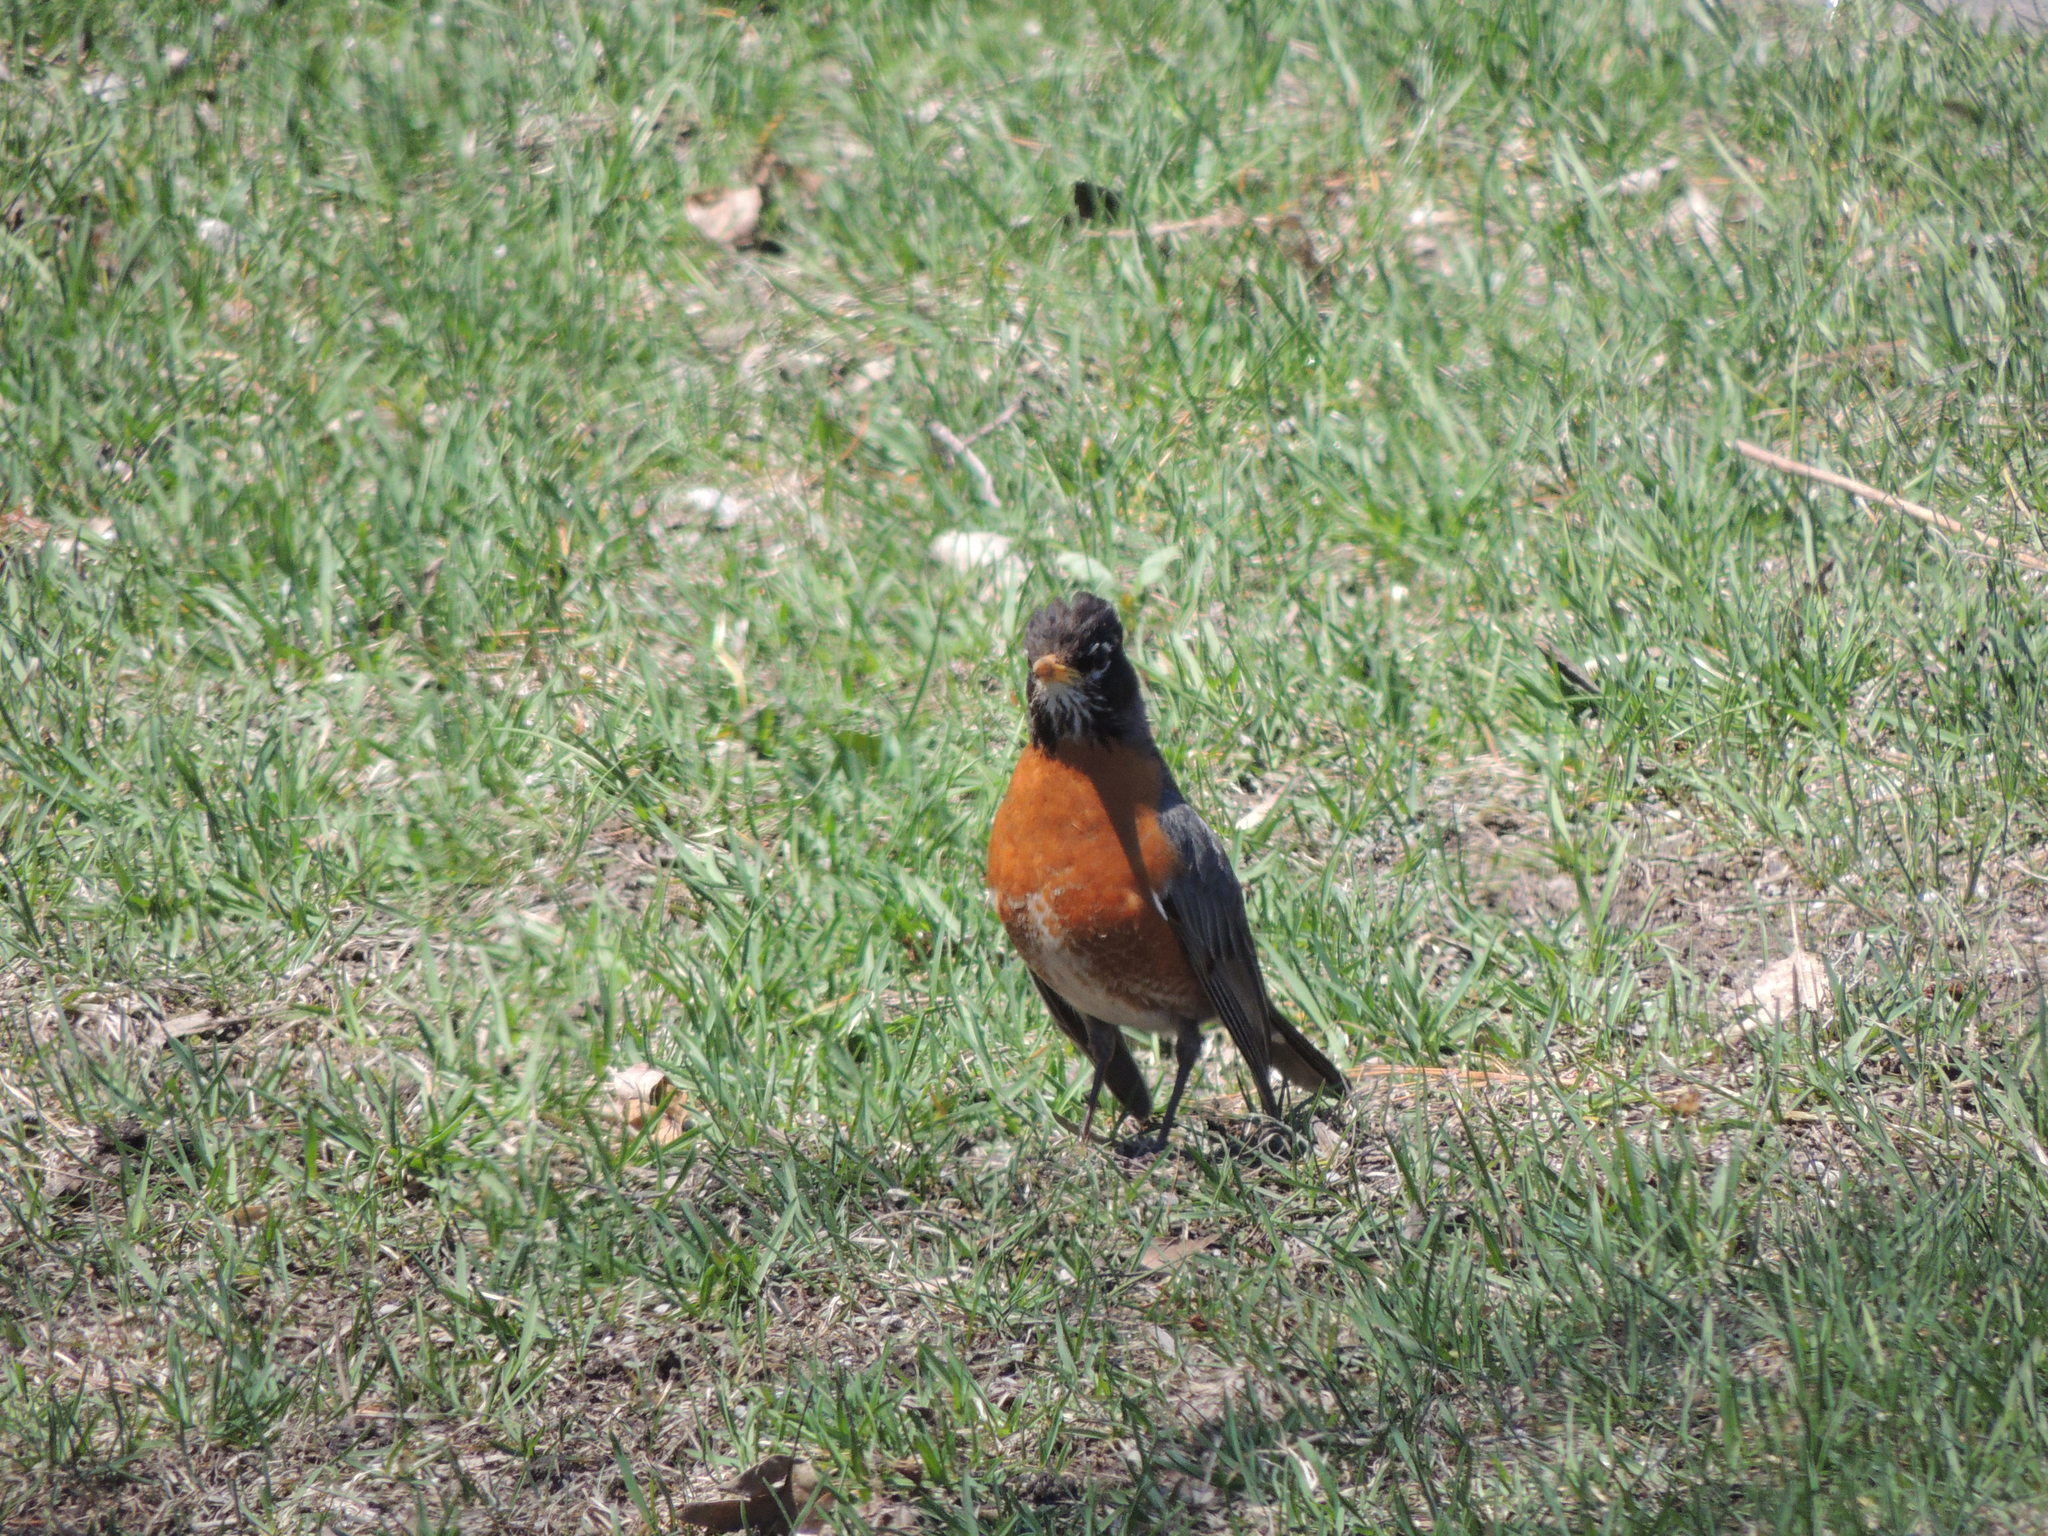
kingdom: Animalia
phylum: Chordata
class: Aves
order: Passeriformes
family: Turdidae
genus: Turdus
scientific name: Turdus migratorius
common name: American robin
